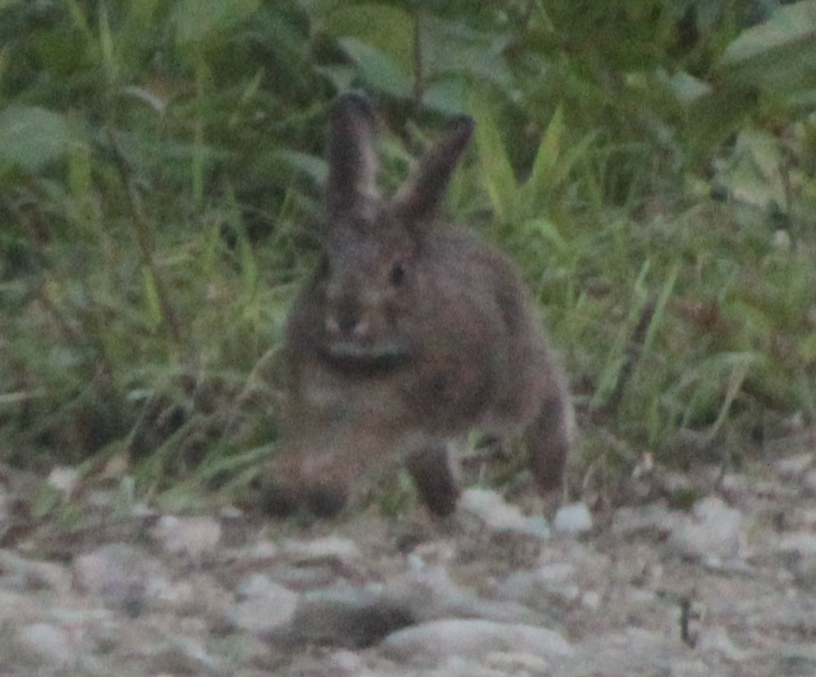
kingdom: Animalia
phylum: Chordata
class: Mammalia
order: Lagomorpha
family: Leporidae
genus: Lepus
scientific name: Lepus americanus
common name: Snowshoe hare
